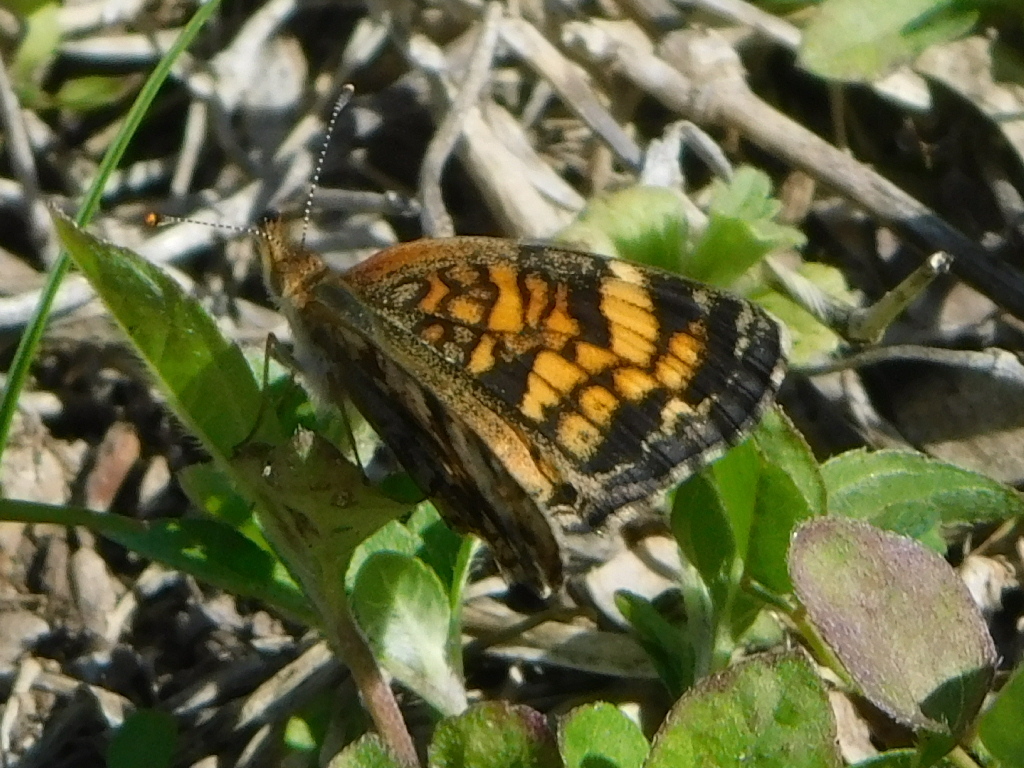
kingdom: Animalia
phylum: Arthropoda
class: Insecta
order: Lepidoptera
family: Nymphalidae
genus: Phyciodes
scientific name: Phyciodes tharos
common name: Pearl crescent
